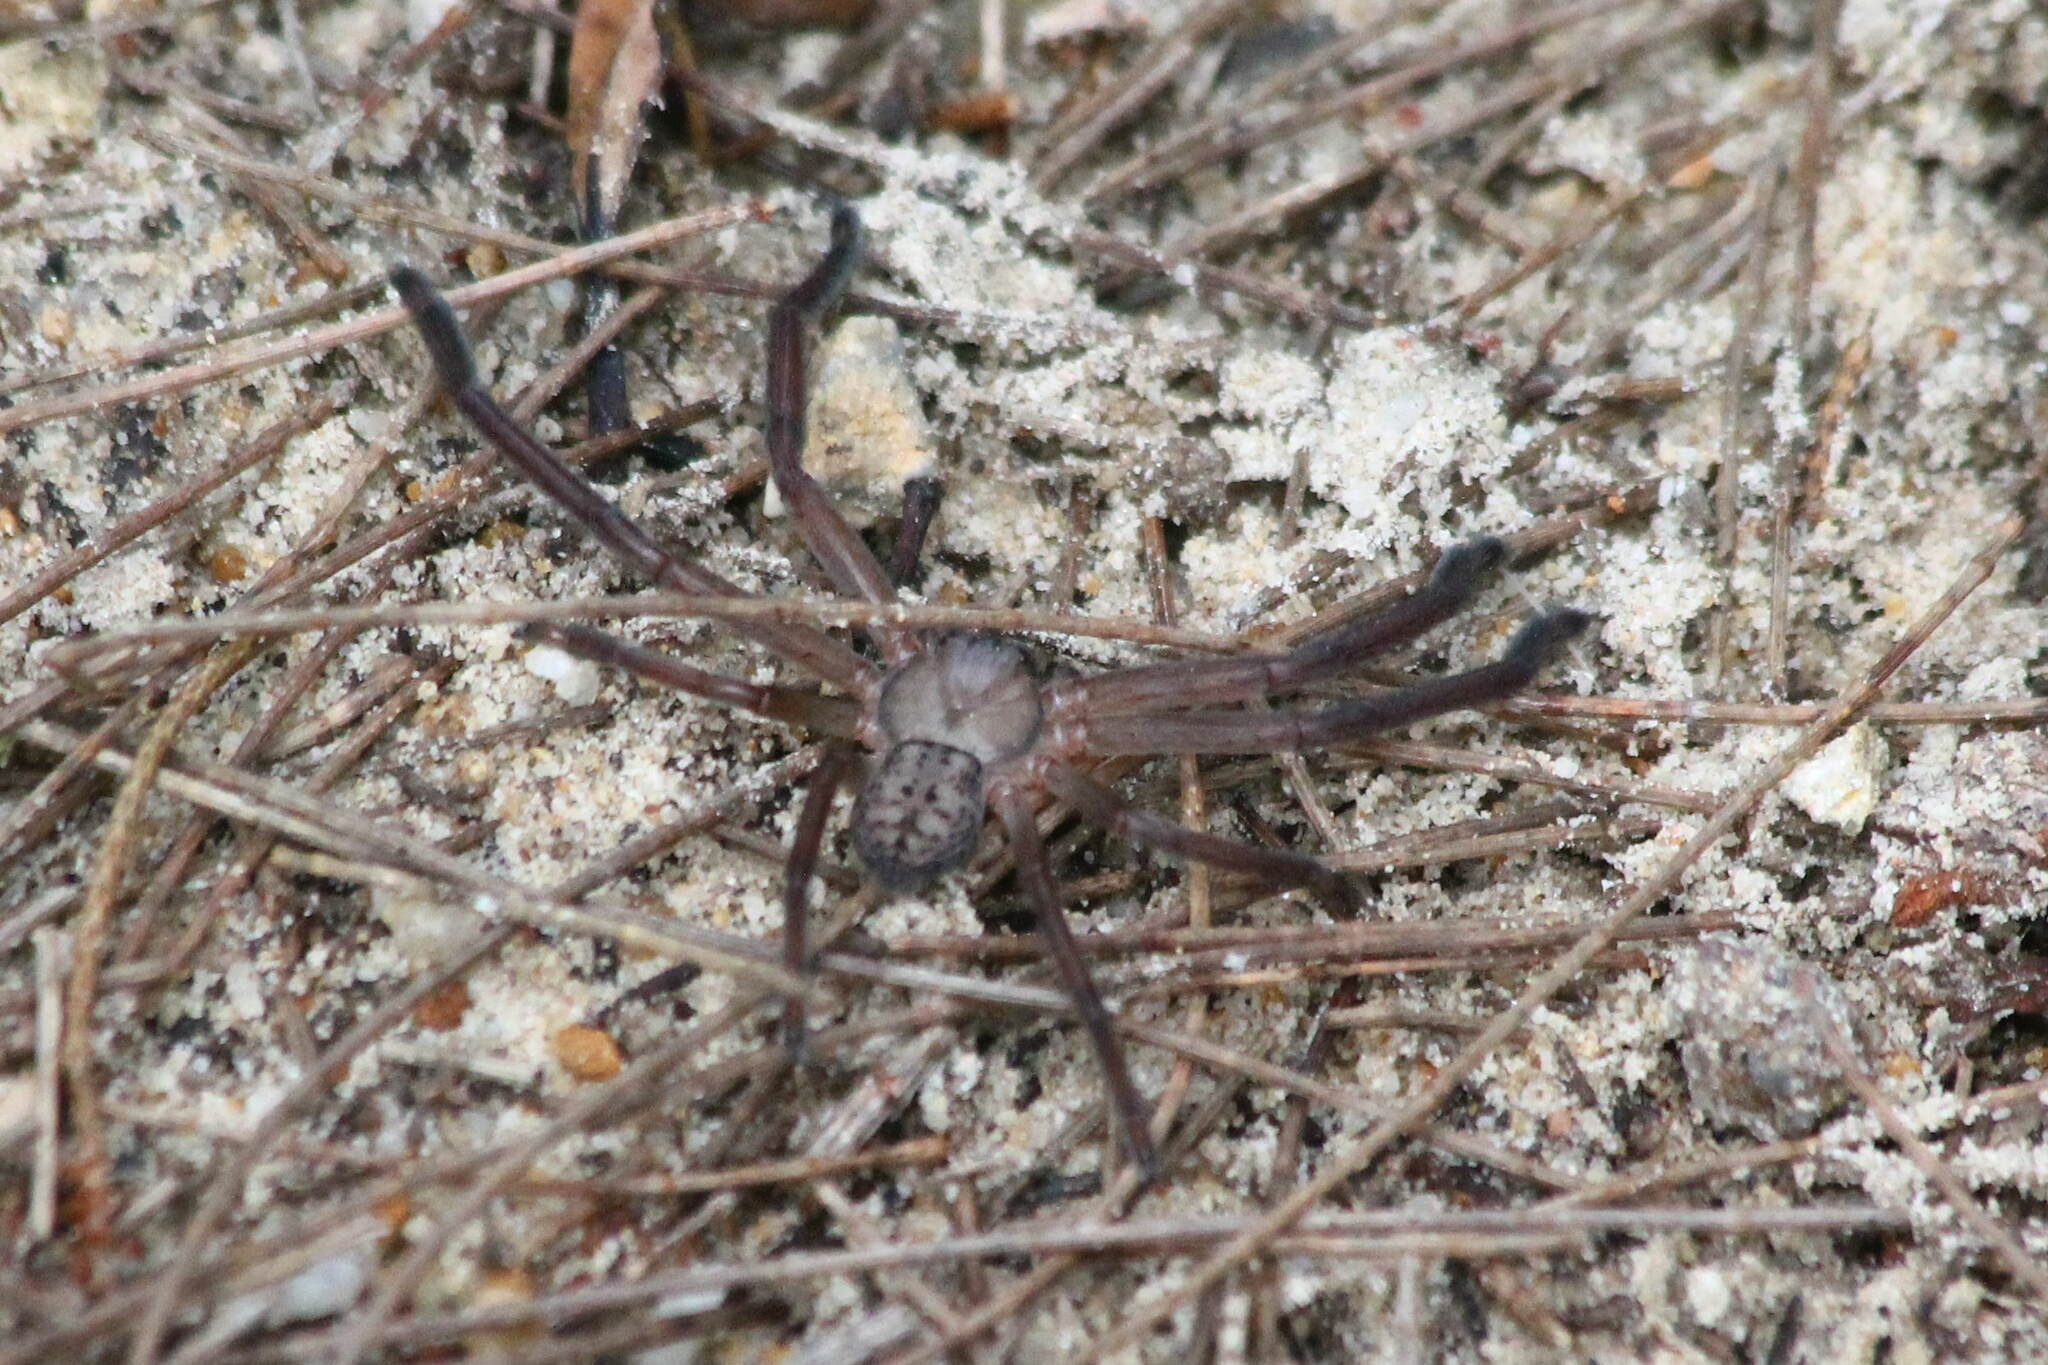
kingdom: Animalia
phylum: Arthropoda
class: Arachnida
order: Araneae
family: Sparassidae
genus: Delena
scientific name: Delena cancerides
